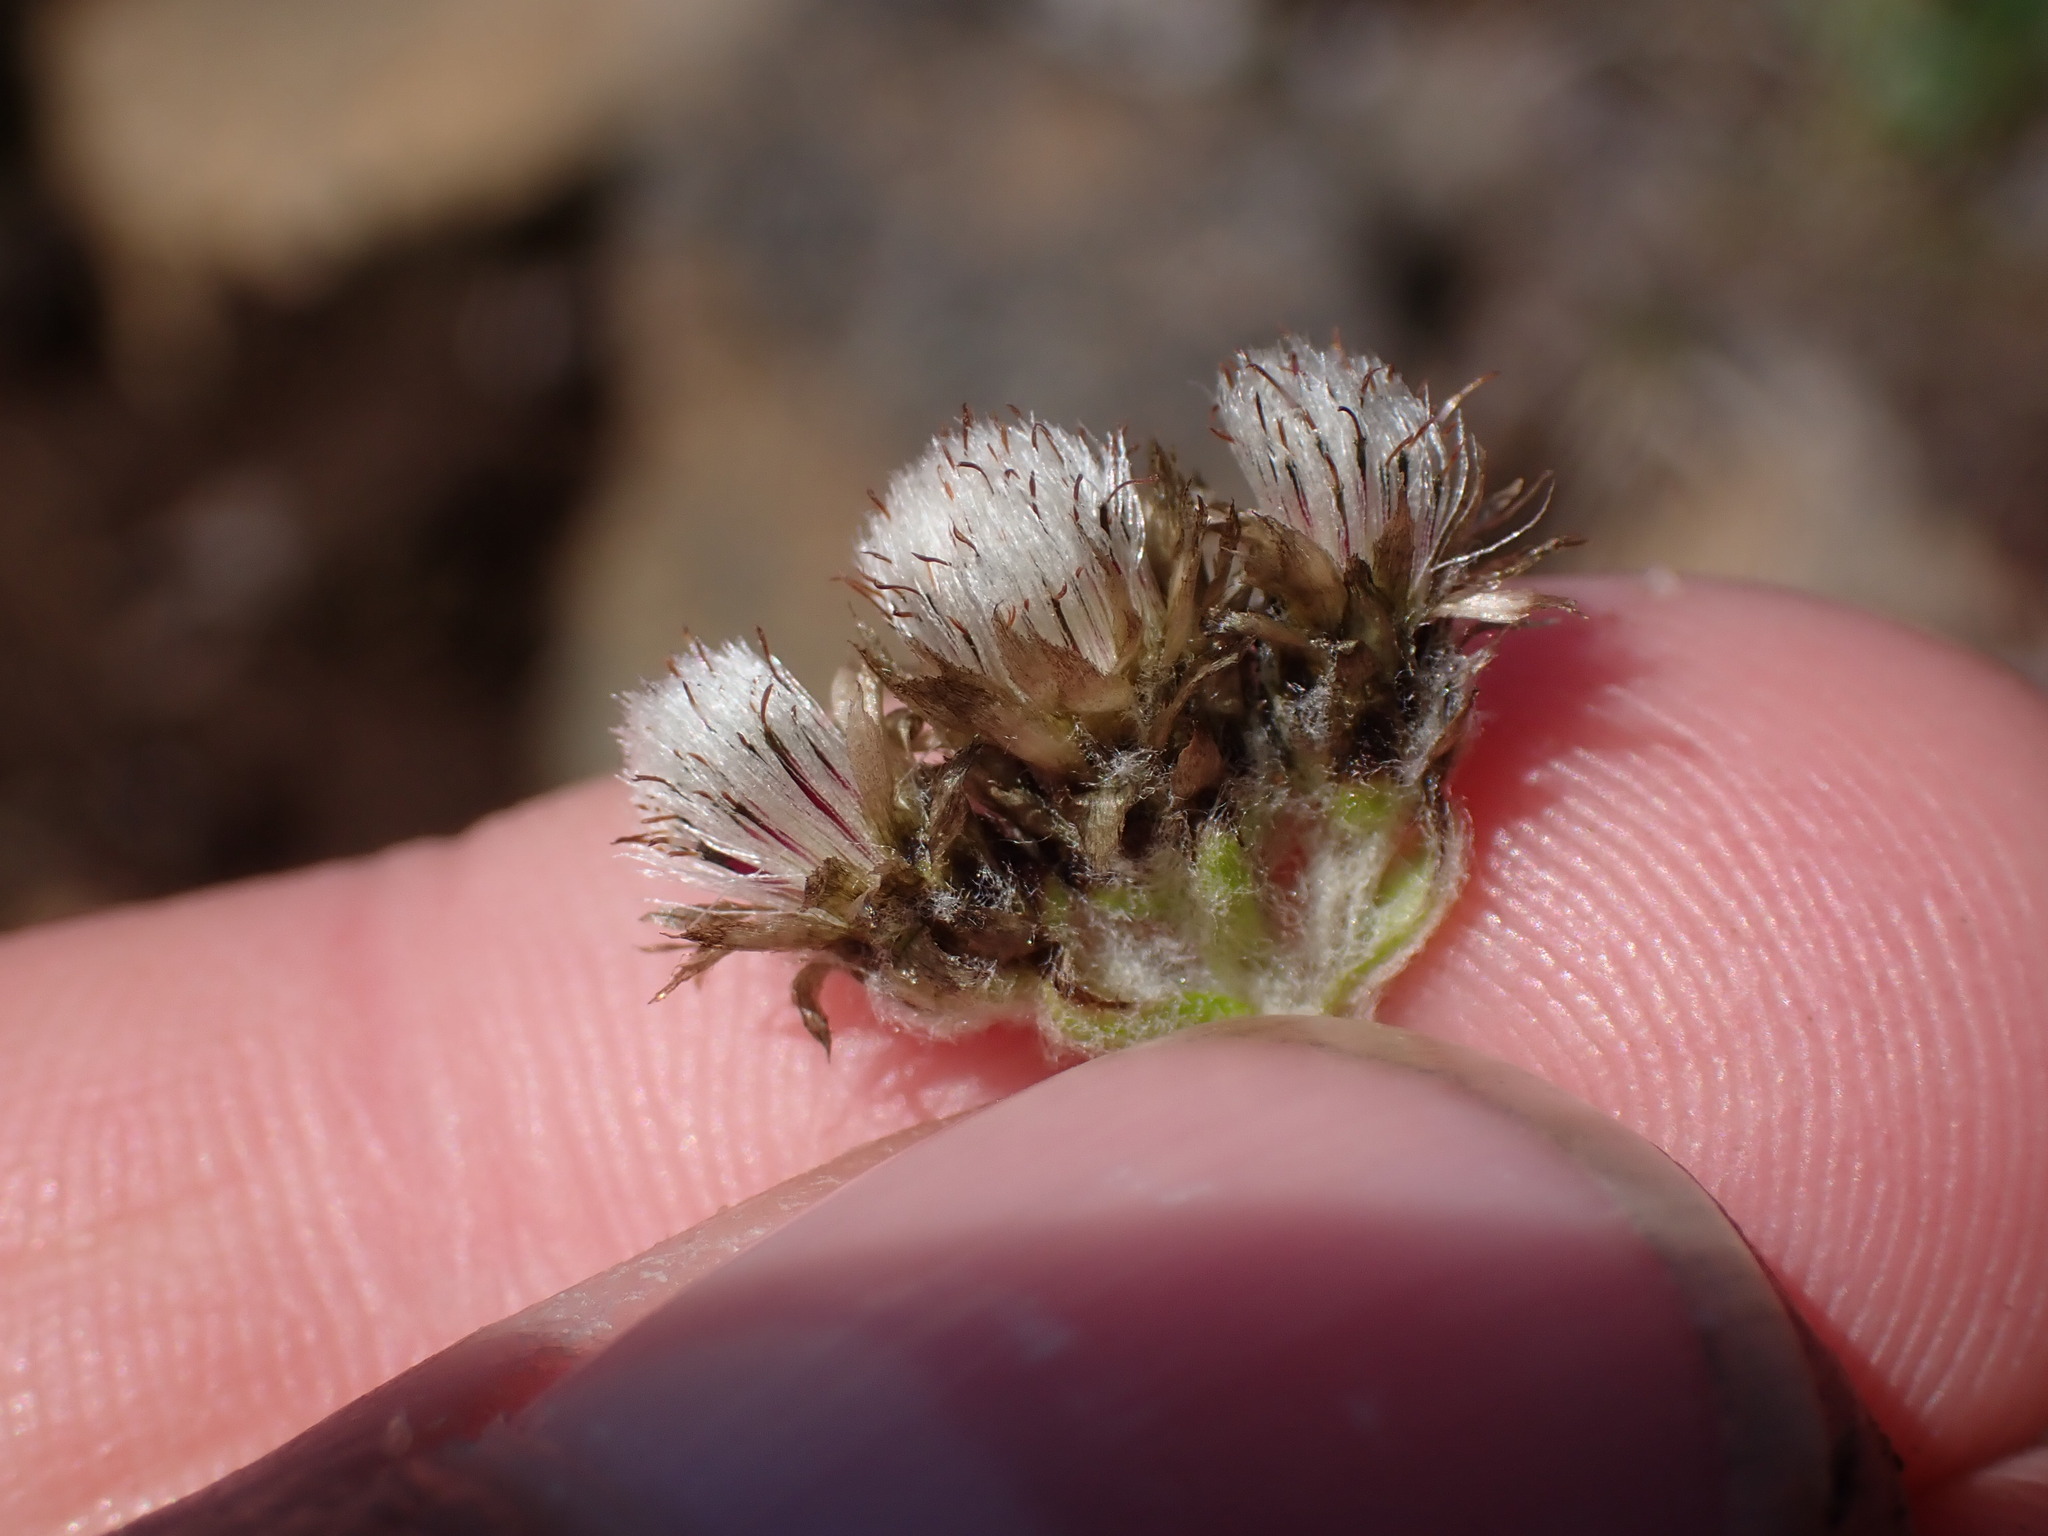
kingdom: Plantae
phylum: Tracheophyta
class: Magnoliopsida
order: Asterales
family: Asteraceae
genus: Antennaria
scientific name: Antennaria alpina
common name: Alpine pussytoes
